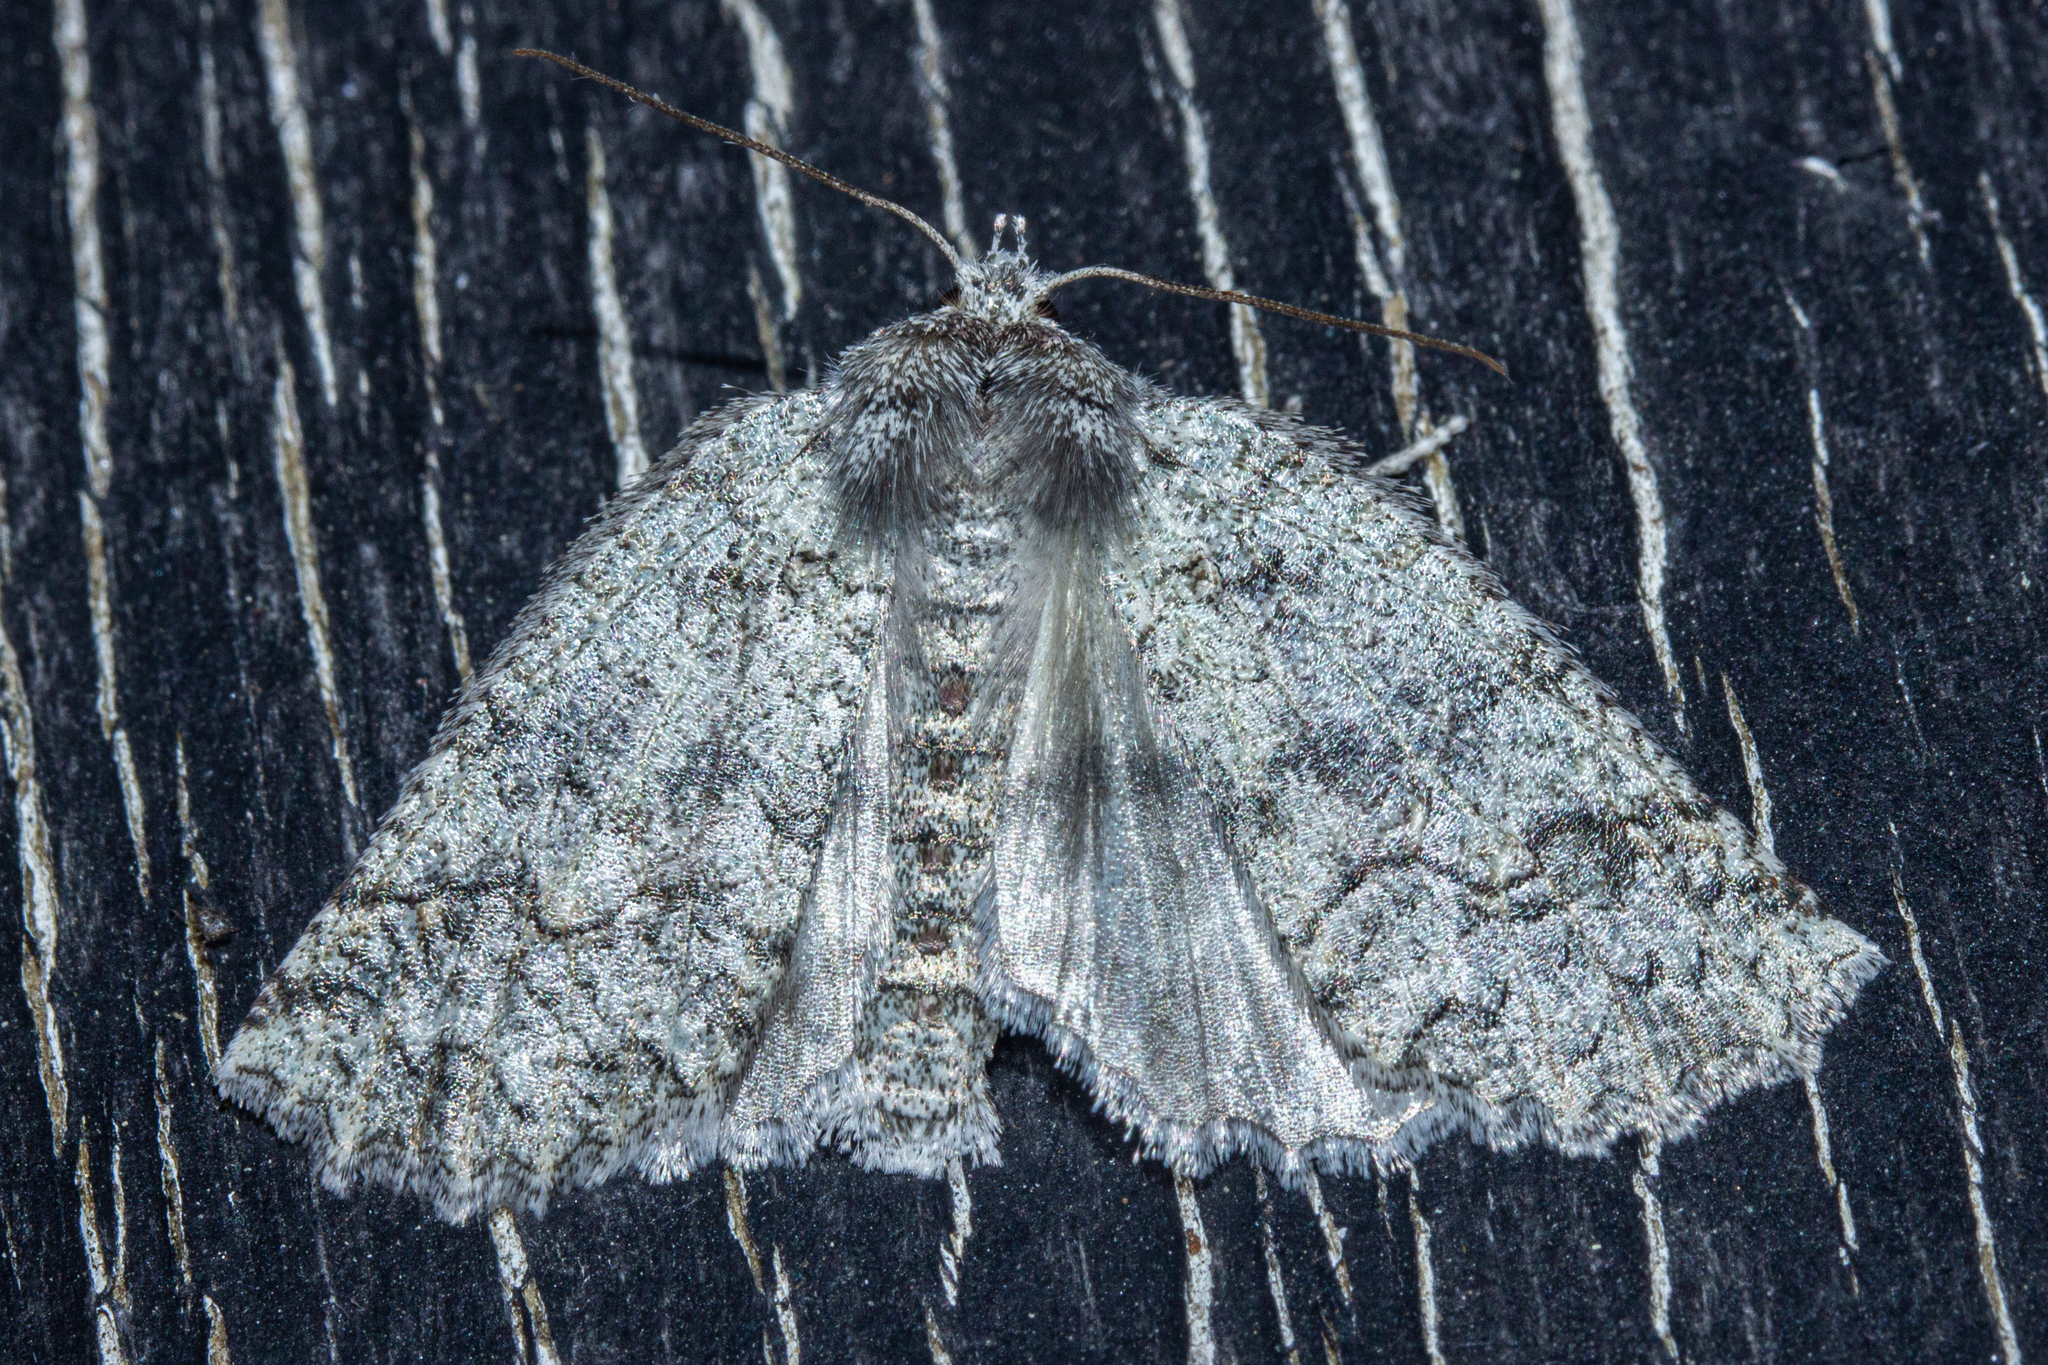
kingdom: Animalia
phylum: Arthropoda
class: Insecta
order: Lepidoptera
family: Geometridae
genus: Declana
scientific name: Declana floccosa
